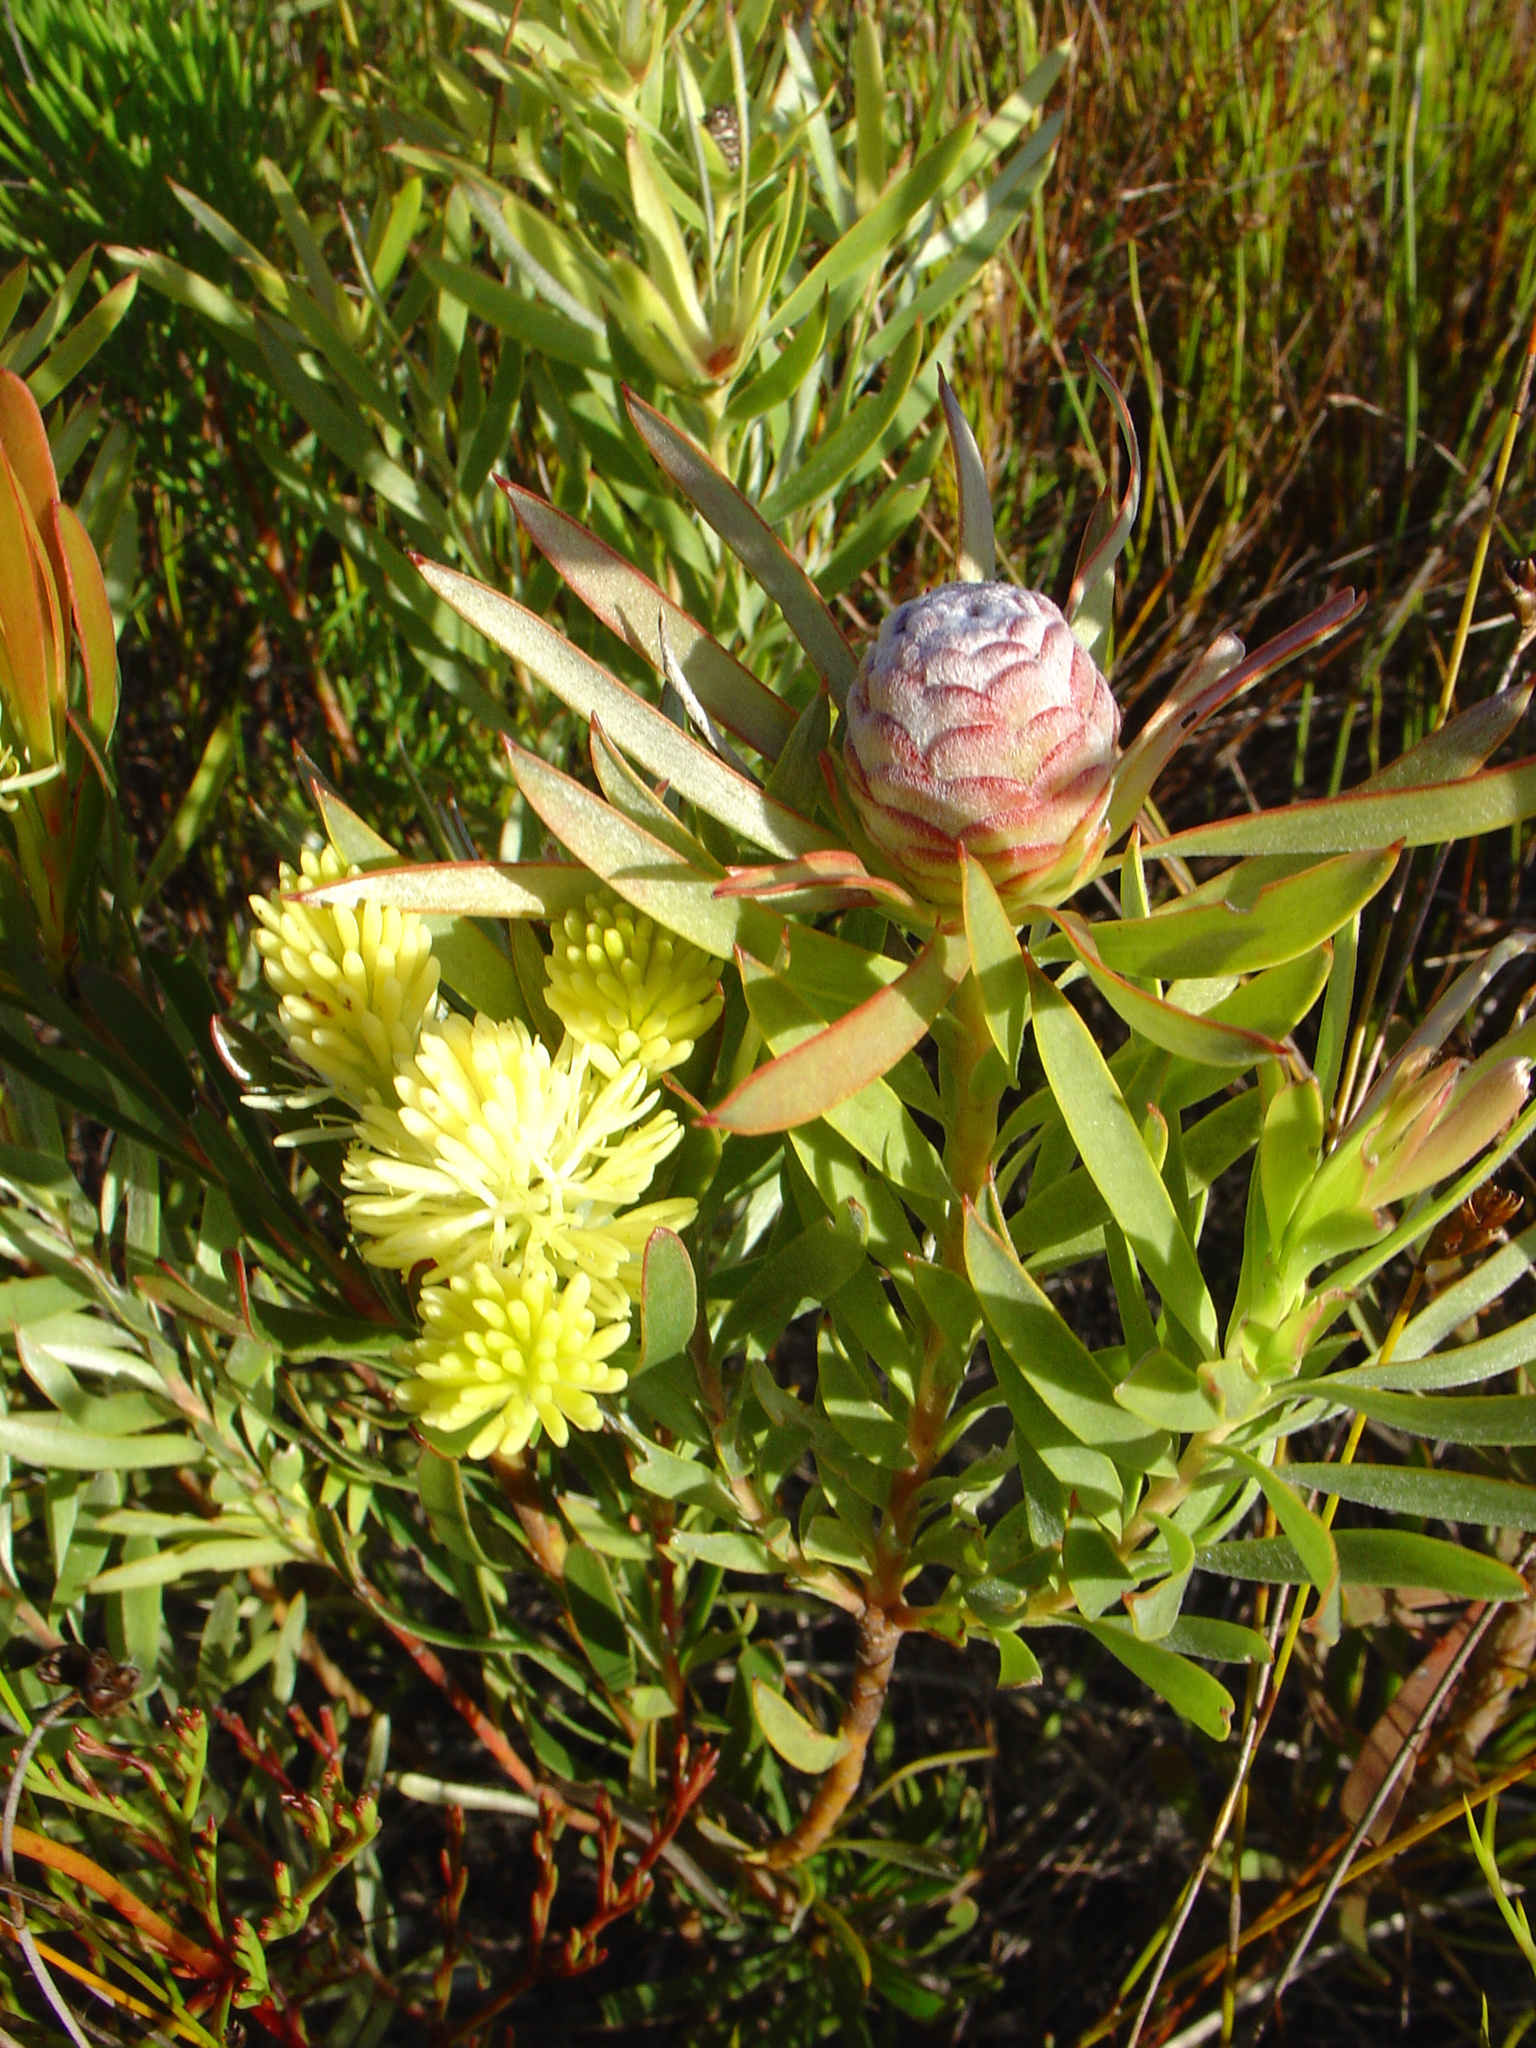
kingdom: Plantae
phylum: Tracheophyta
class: Magnoliopsida
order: Proteales
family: Proteaceae
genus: Leucadendron
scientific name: Leucadendron xanthoconus
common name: Sickle-leaf conebush
